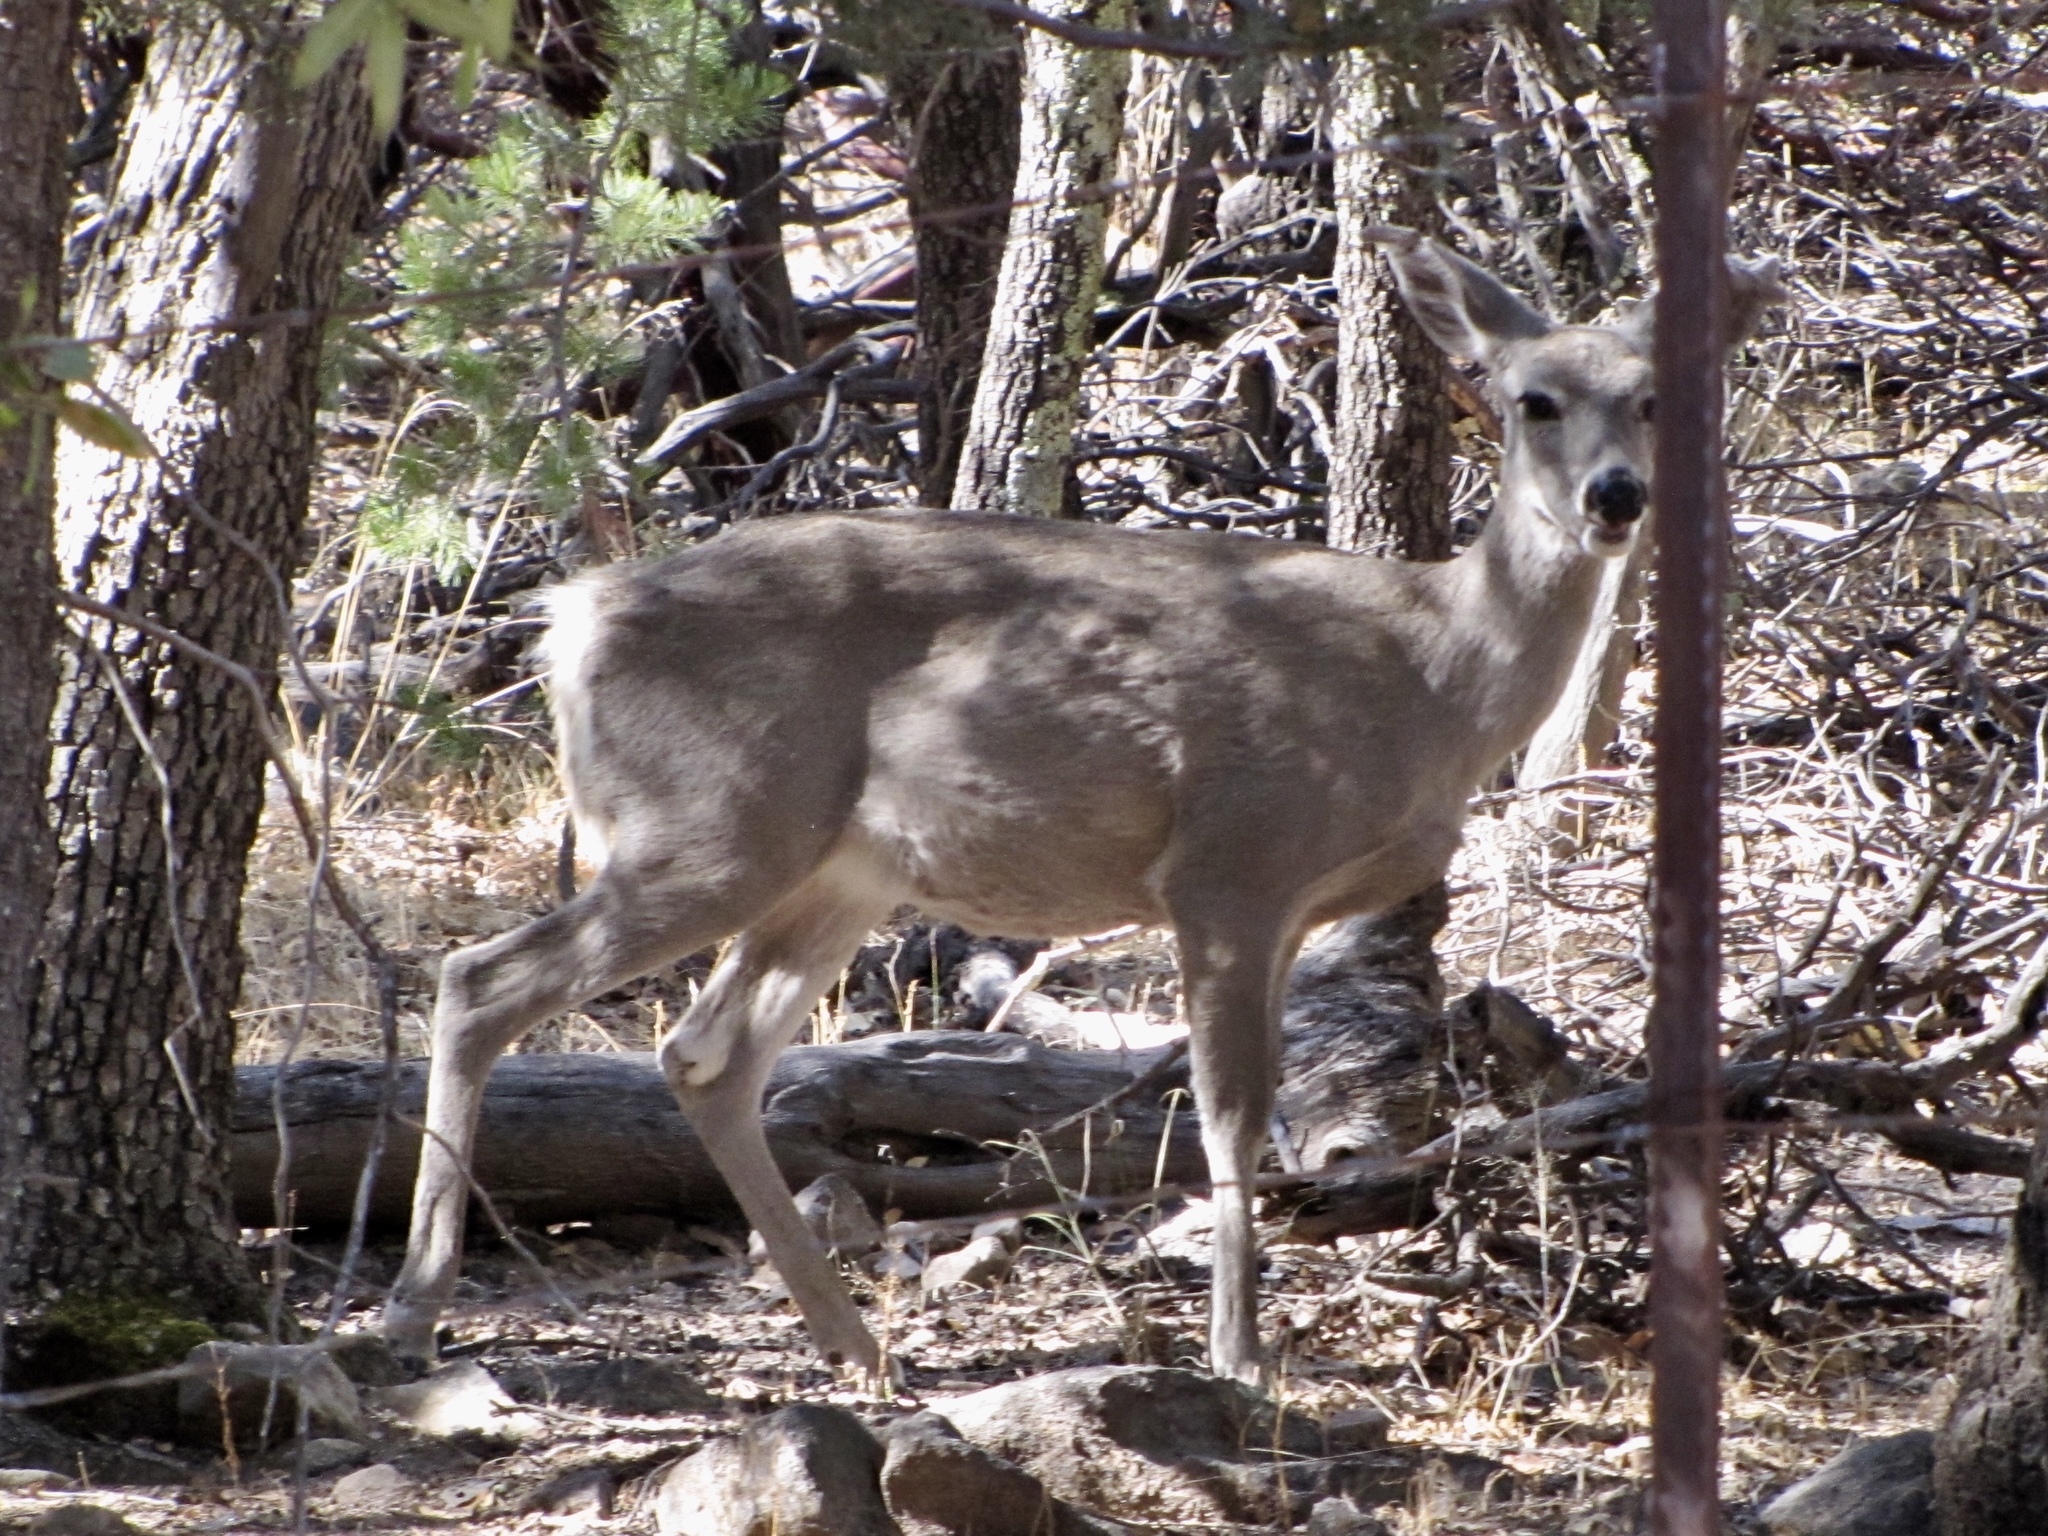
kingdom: Animalia
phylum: Chordata
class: Mammalia
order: Artiodactyla
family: Cervidae
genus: Odocoileus
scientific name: Odocoileus virginianus
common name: White-tailed deer
